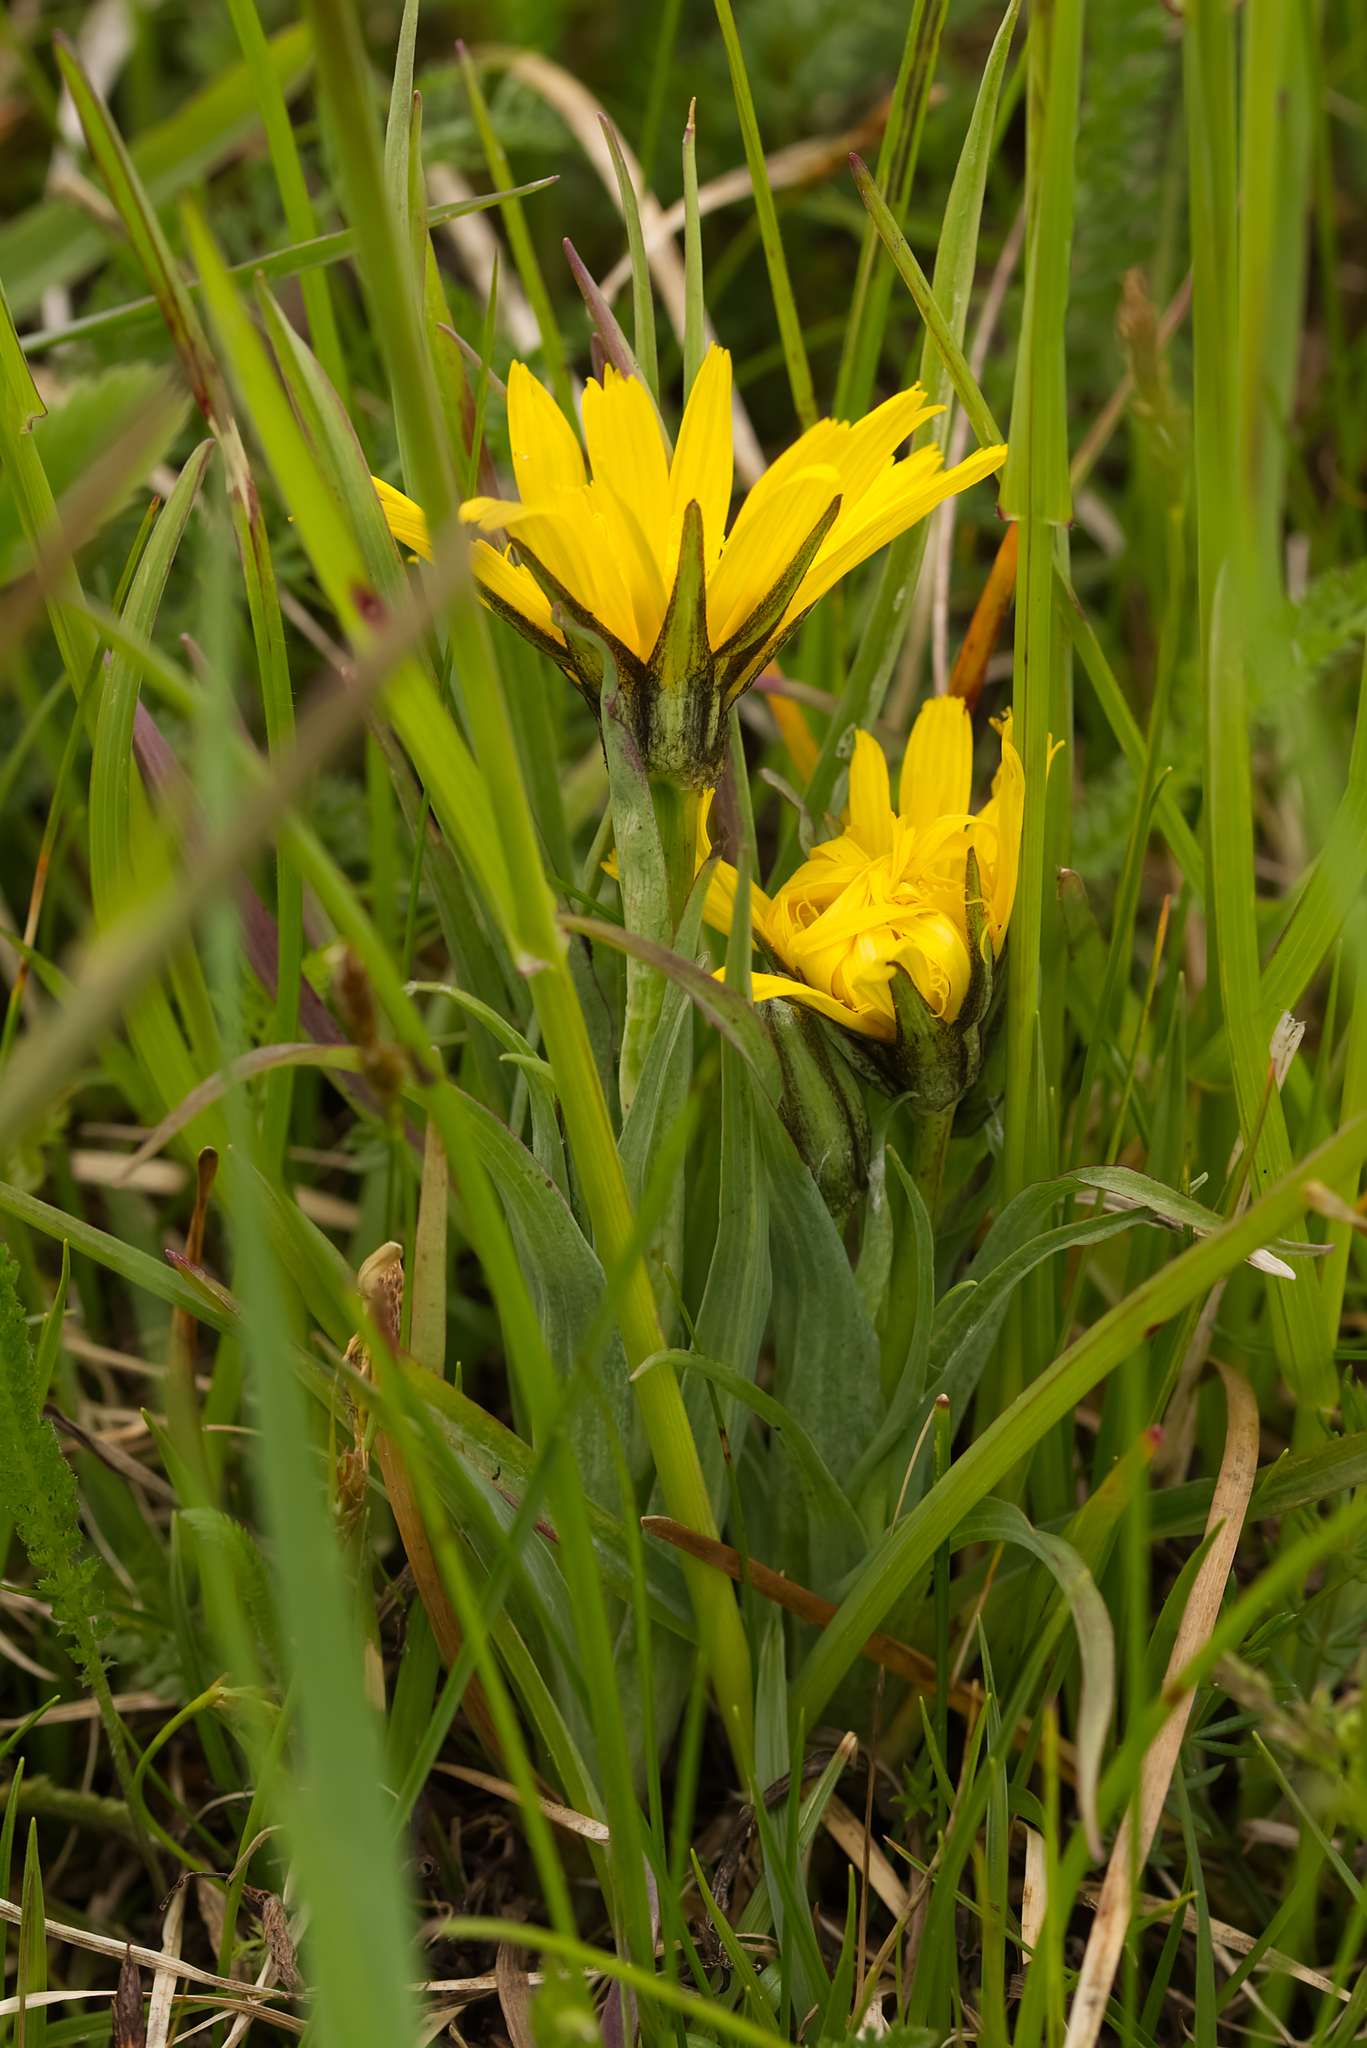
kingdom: Plantae
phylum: Tracheophyta
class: Magnoliopsida
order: Asterales
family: Asteraceae
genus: Tragopogon
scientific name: Tragopogon orientalis
